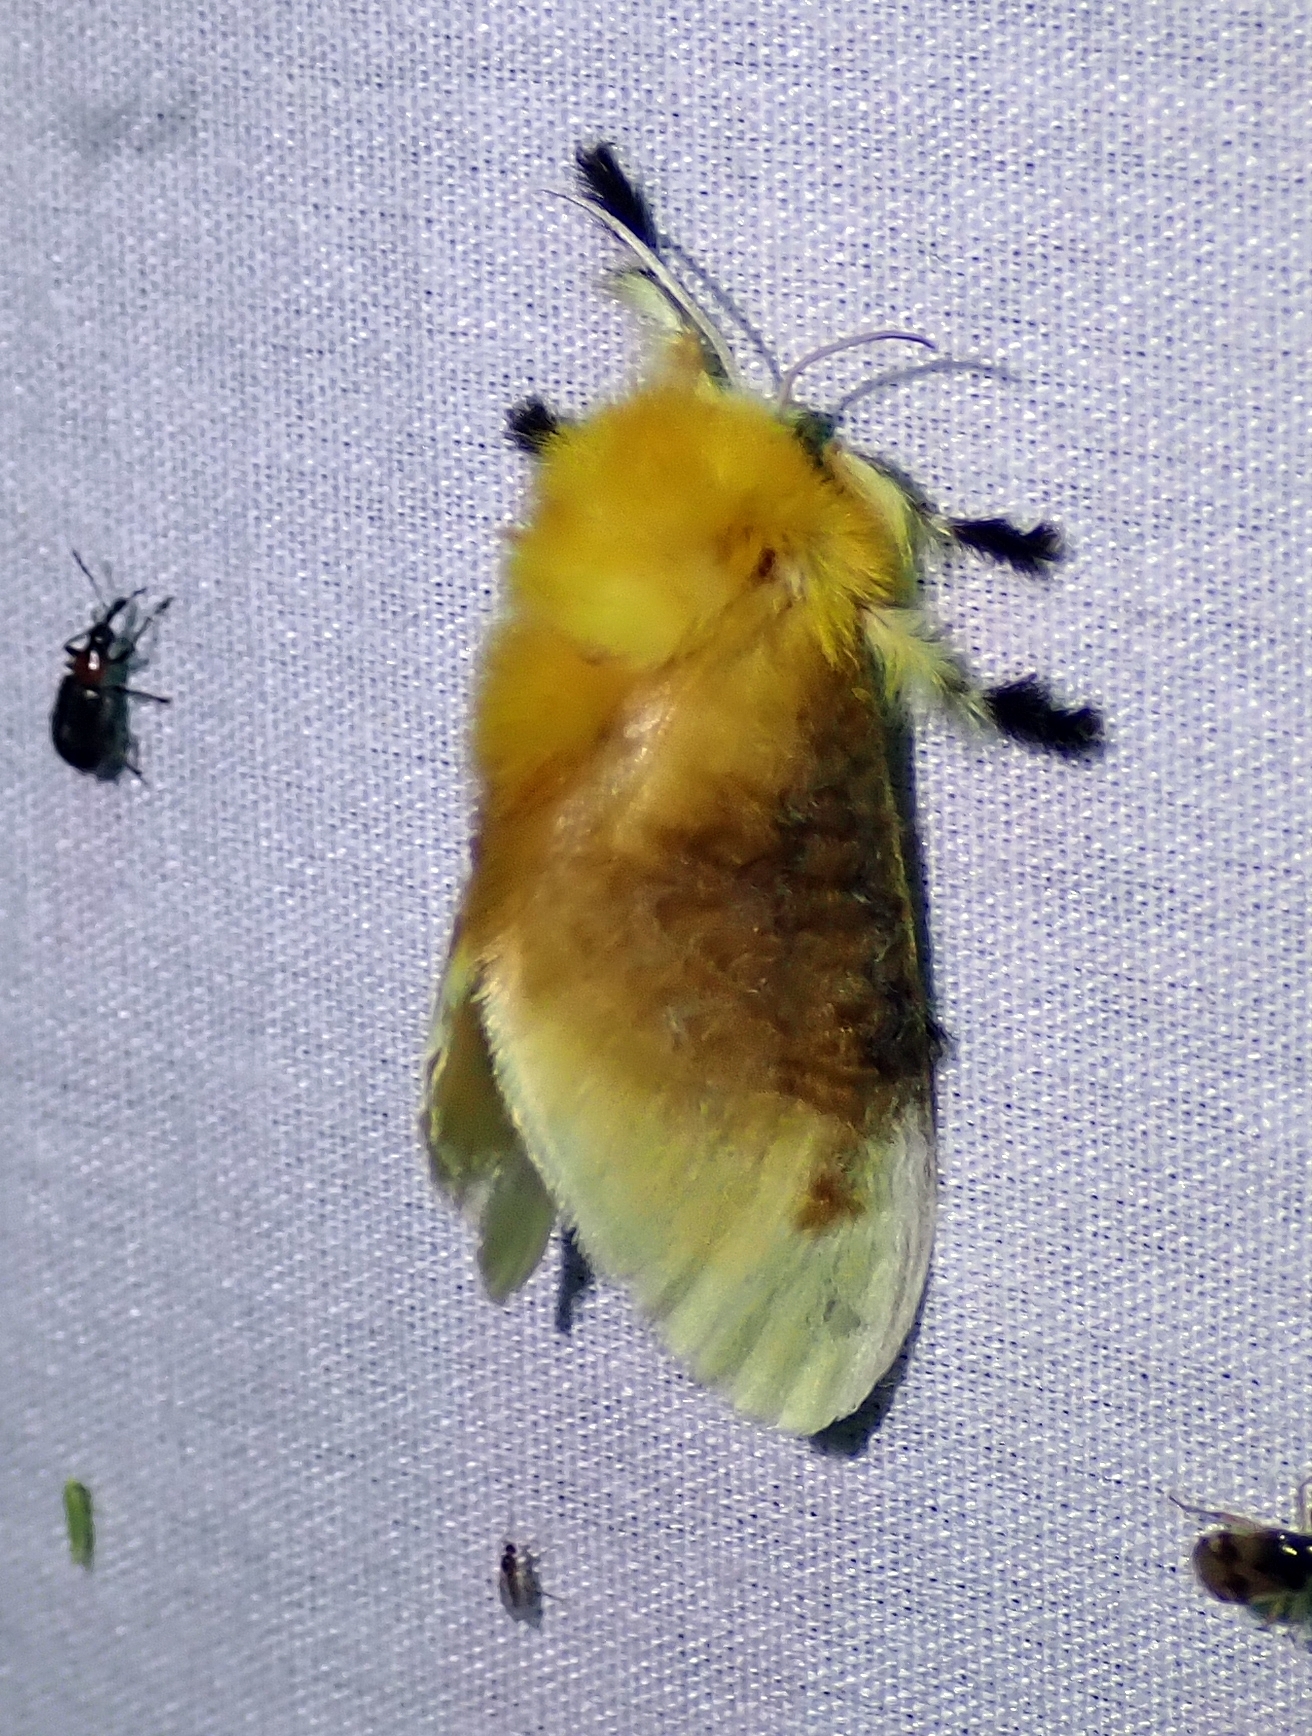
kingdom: Animalia
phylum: Arthropoda
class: Insecta
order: Lepidoptera
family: Megalopygidae
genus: Megalopyge
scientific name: Megalopyge opercularis
